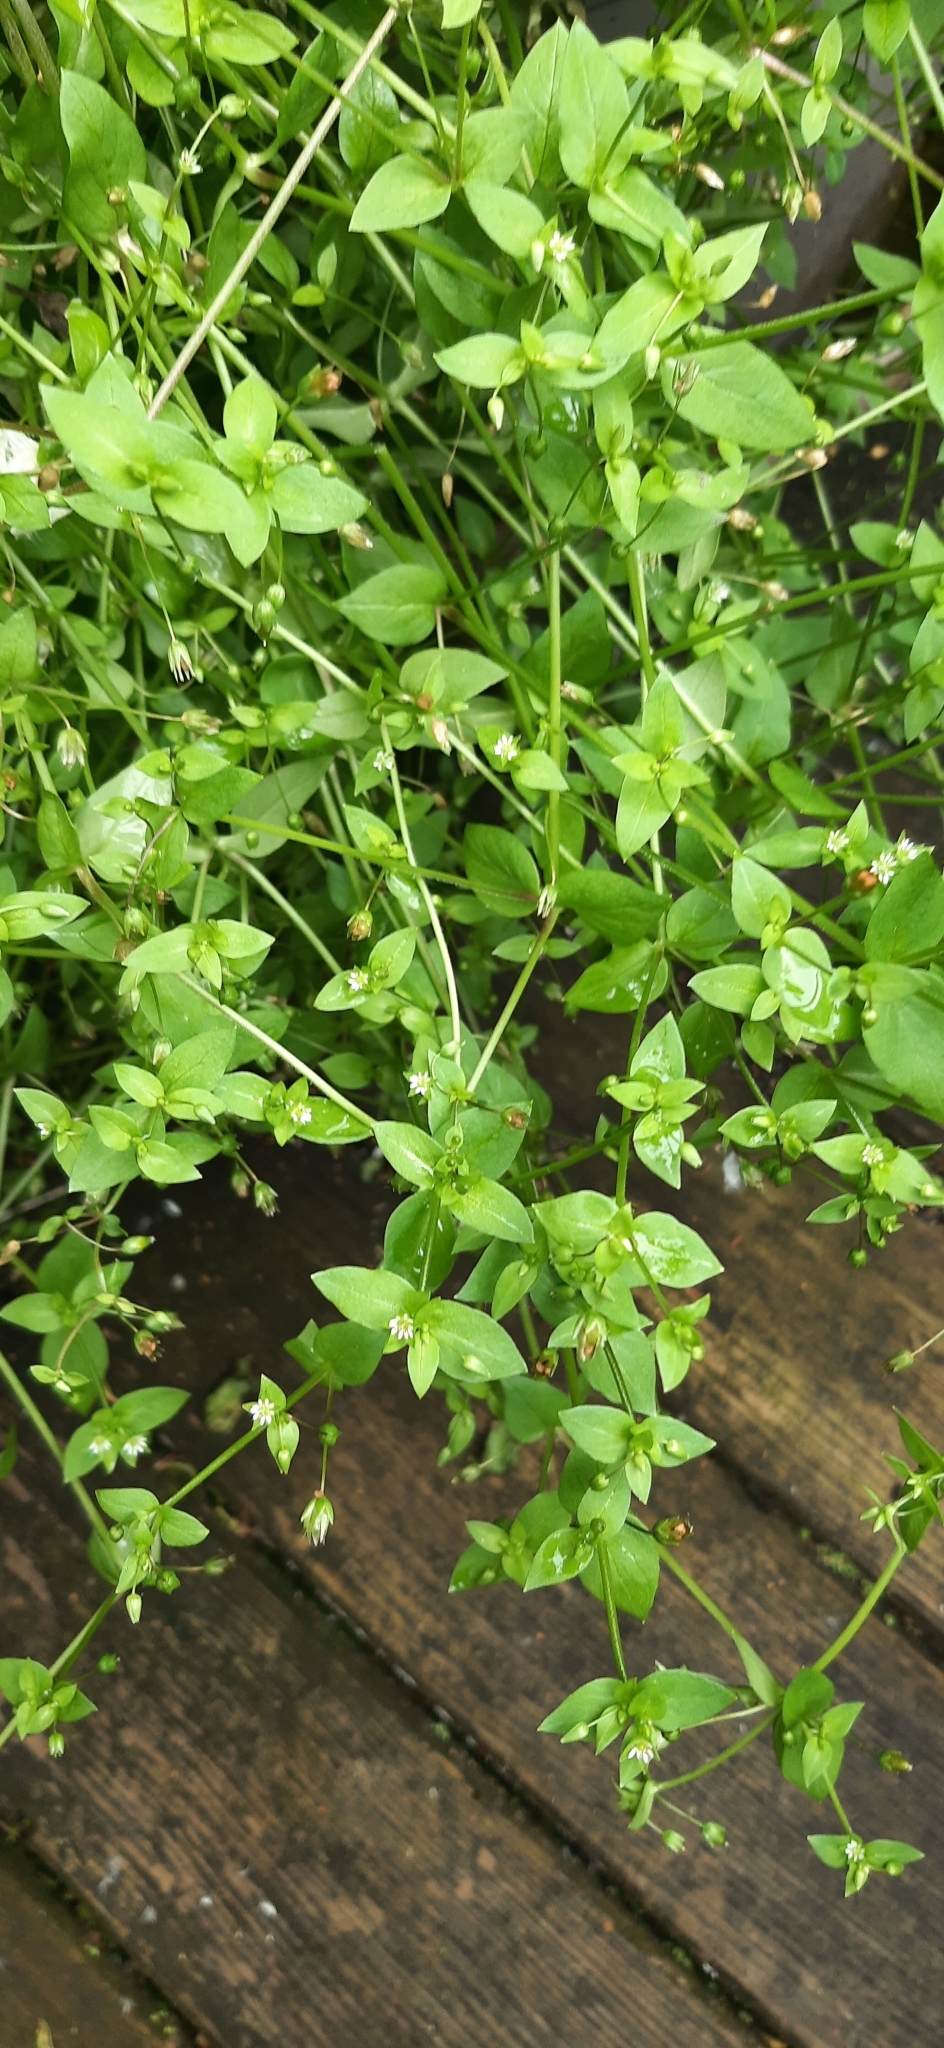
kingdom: Plantae
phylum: Tracheophyta
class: Magnoliopsida
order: Caryophyllales
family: Caryophyllaceae
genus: Stellaria
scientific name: Stellaria media
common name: Common chickweed
